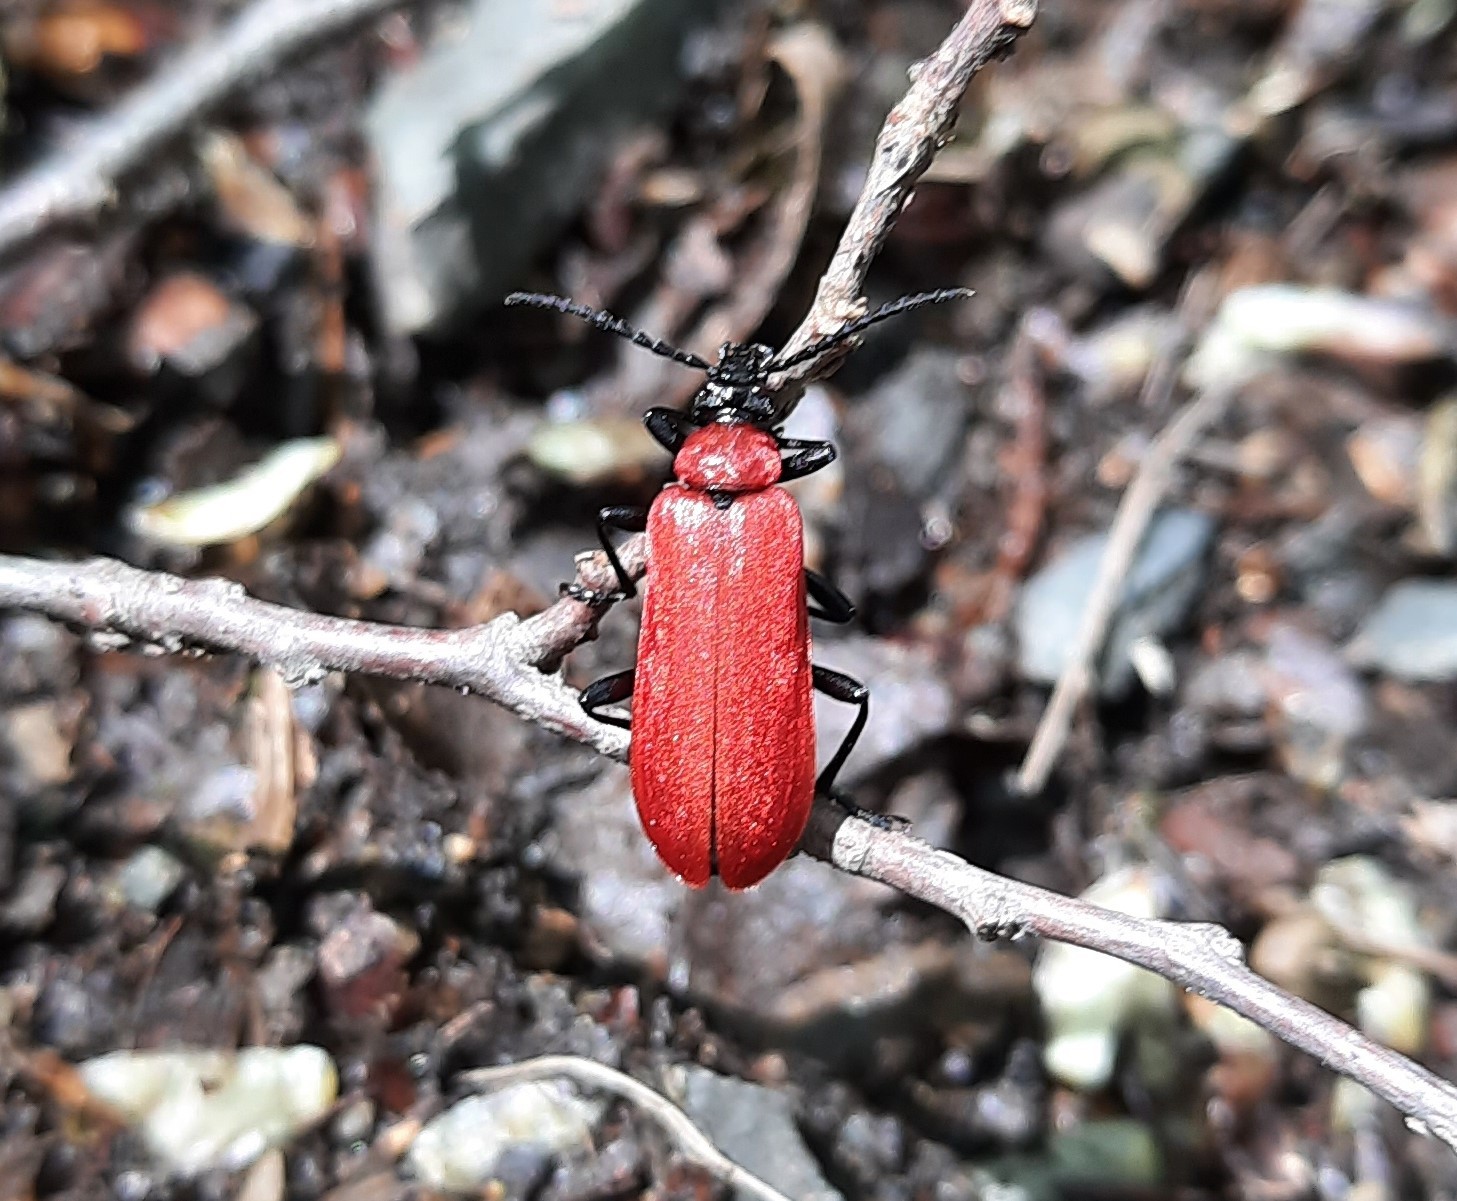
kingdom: Animalia
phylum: Arthropoda
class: Insecta
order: Coleoptera
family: Pyrochroidae
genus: Pyrochroa
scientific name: Pyrochroa coccinea
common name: Black-headed cardinal beetle
